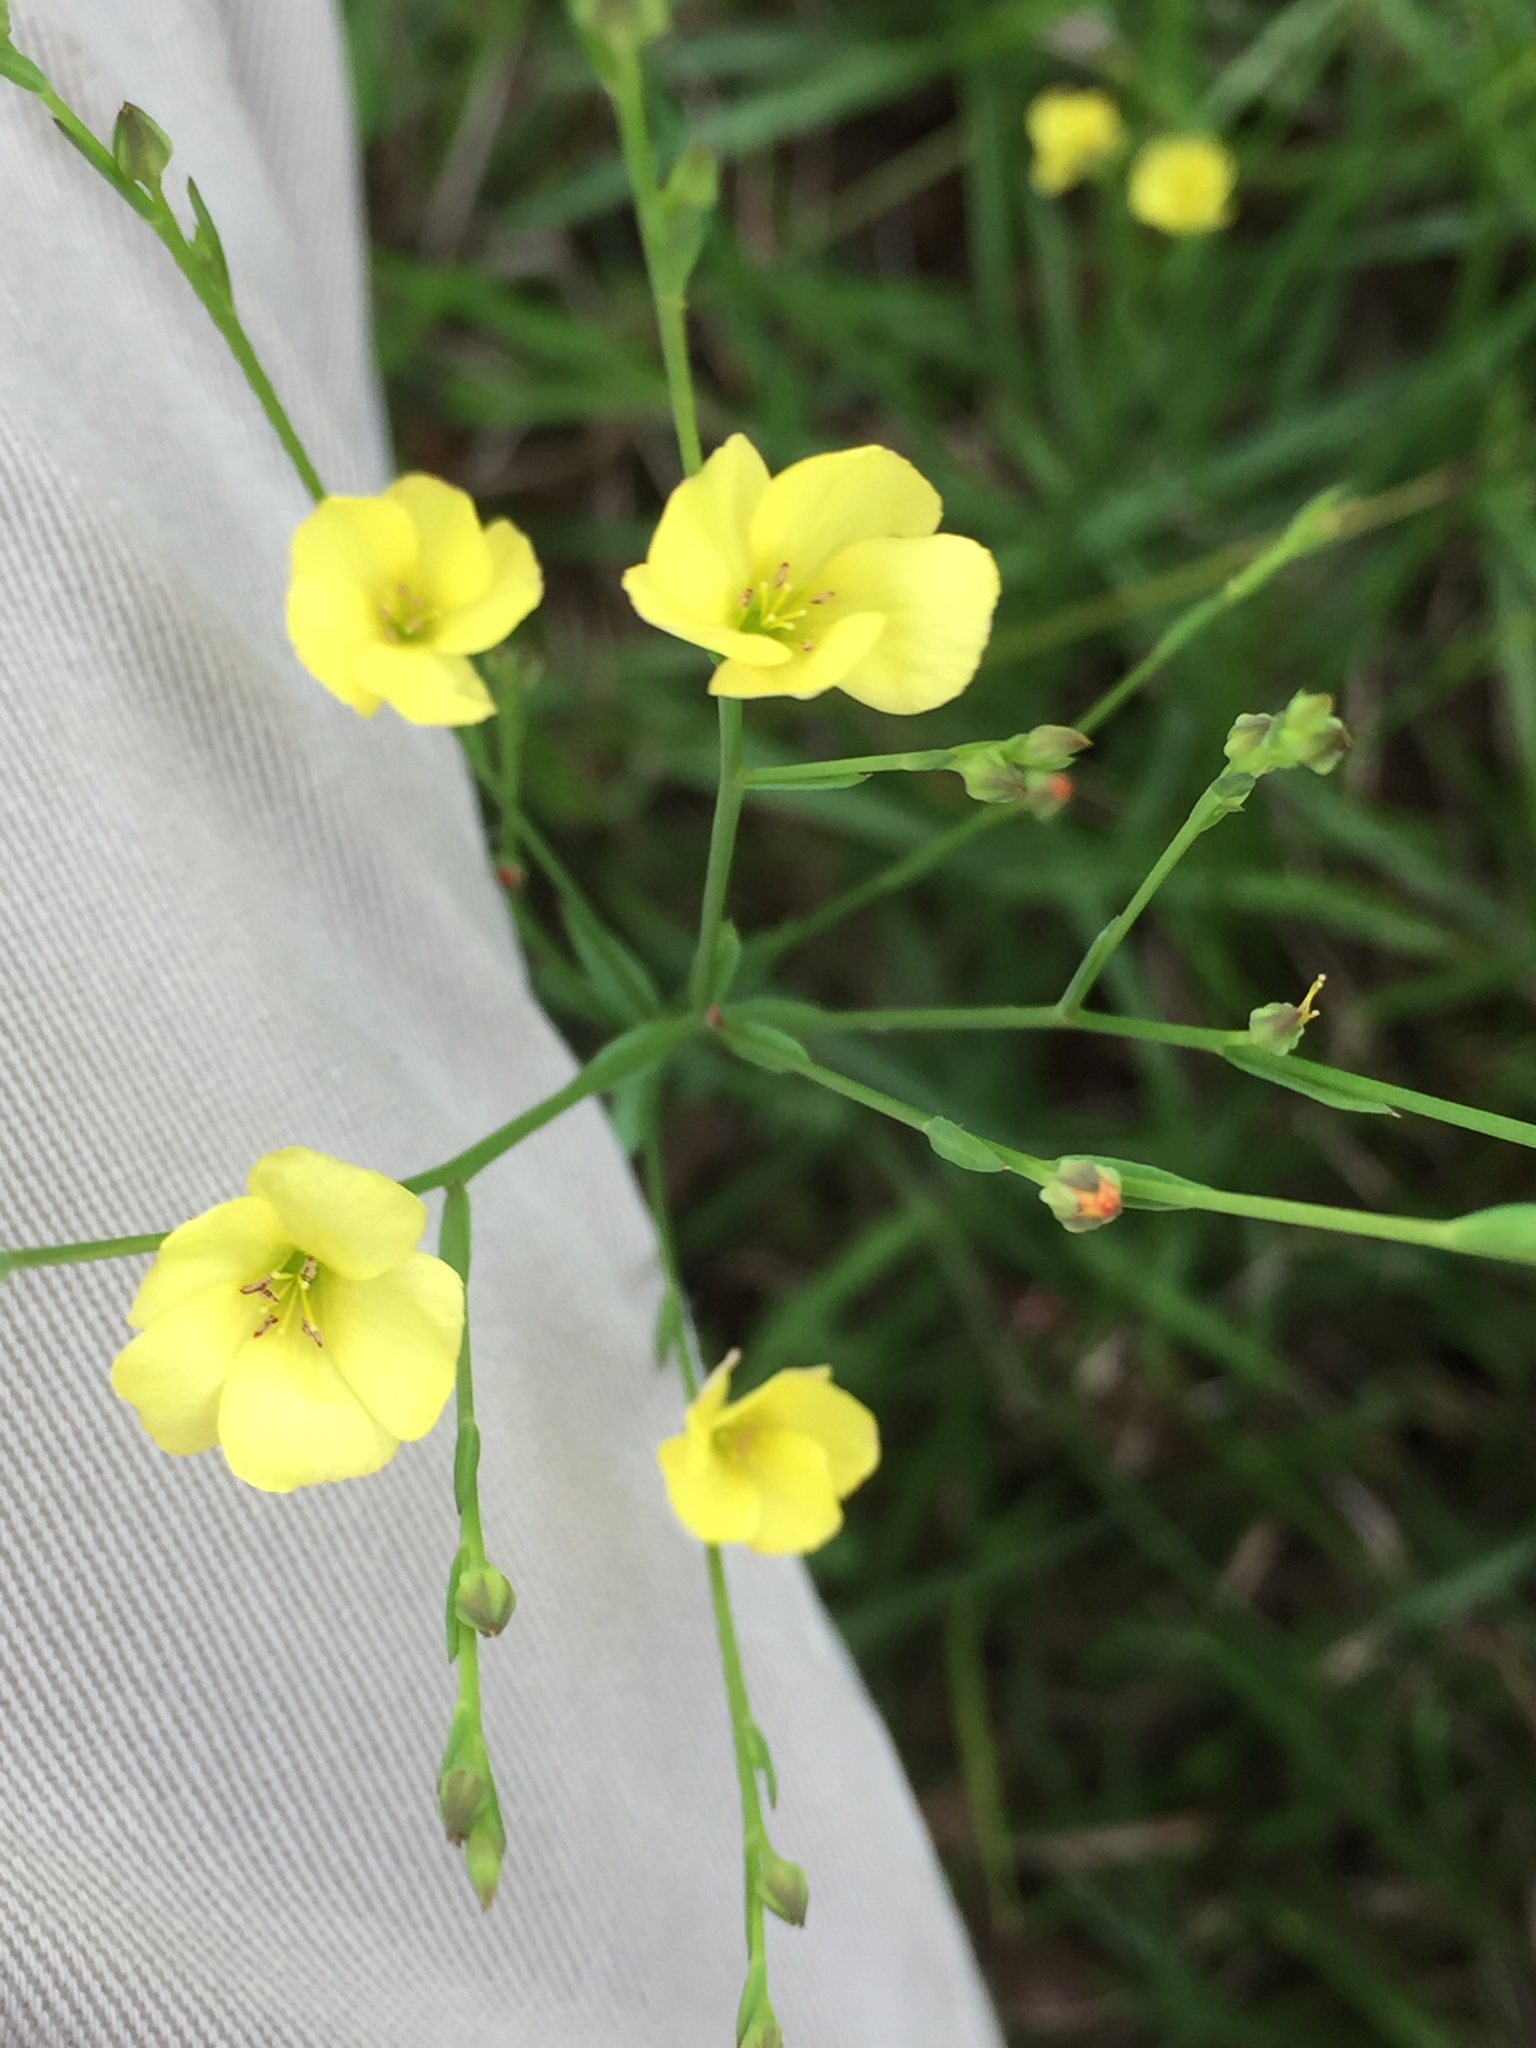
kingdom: Plantae
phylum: Tracheophyta
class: Magnoliopsida
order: Malpighiales
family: Linaceae
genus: Linum
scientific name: Linum medium
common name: Stiff yellow flax
